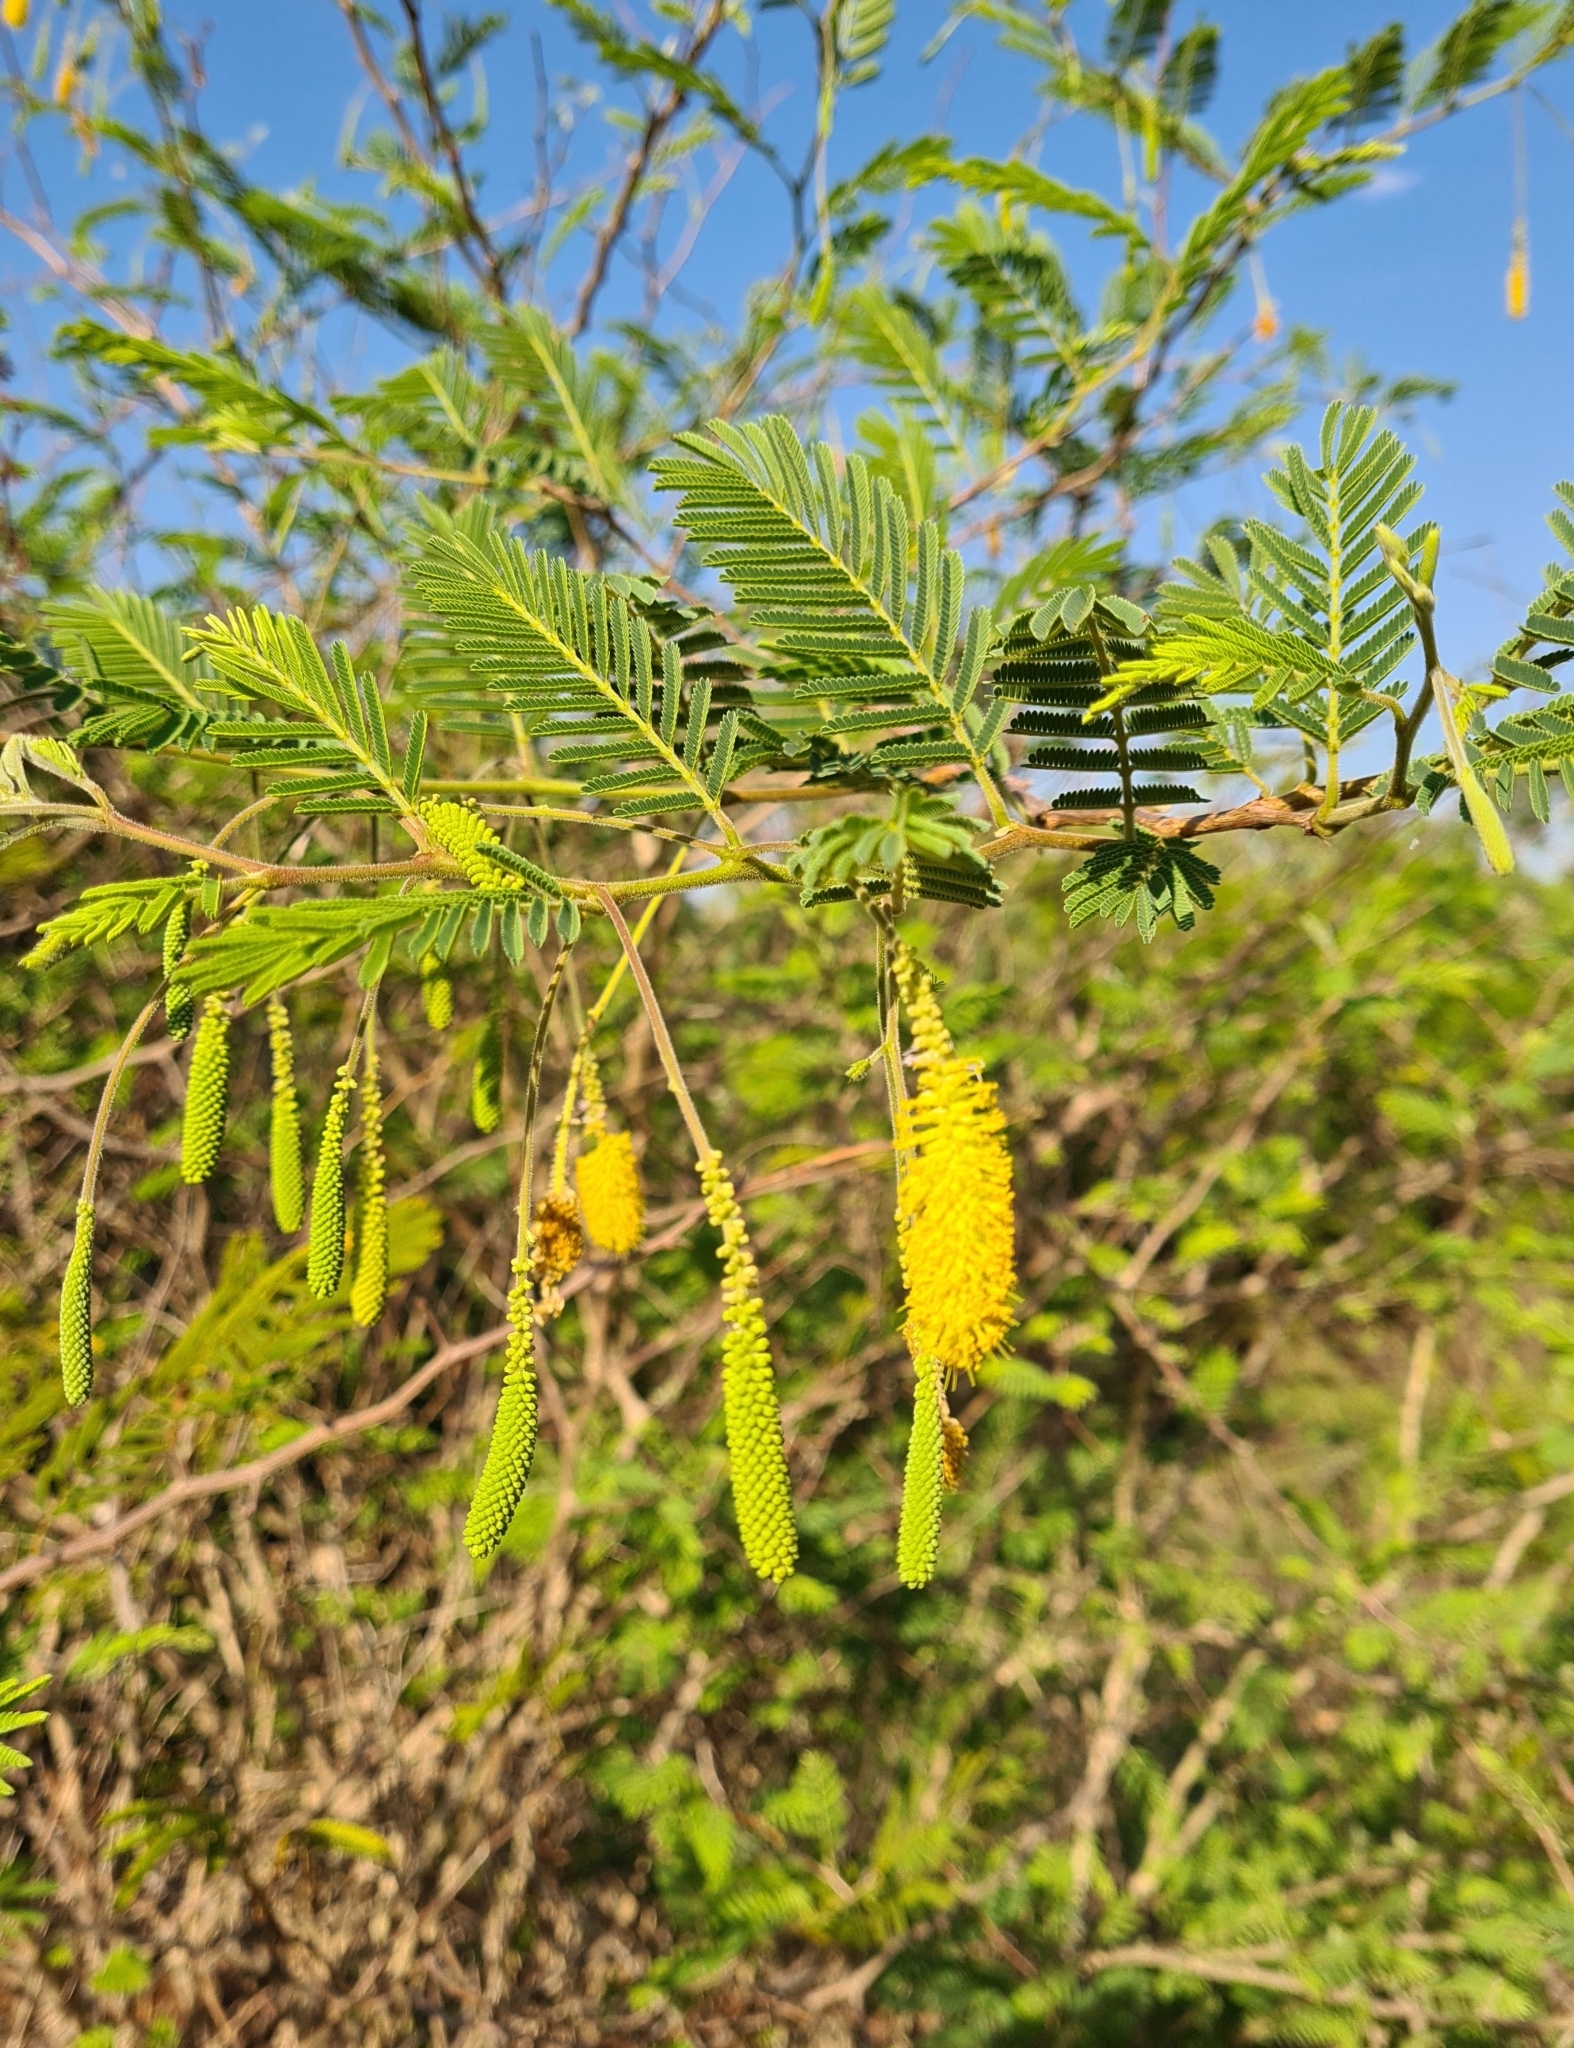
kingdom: Plantae
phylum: Tracheophyta
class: Magnoliopsida
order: Fabales
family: Fabaceae
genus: Dichrostachys
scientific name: Dichrostachys cinerea
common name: Sicklebush
